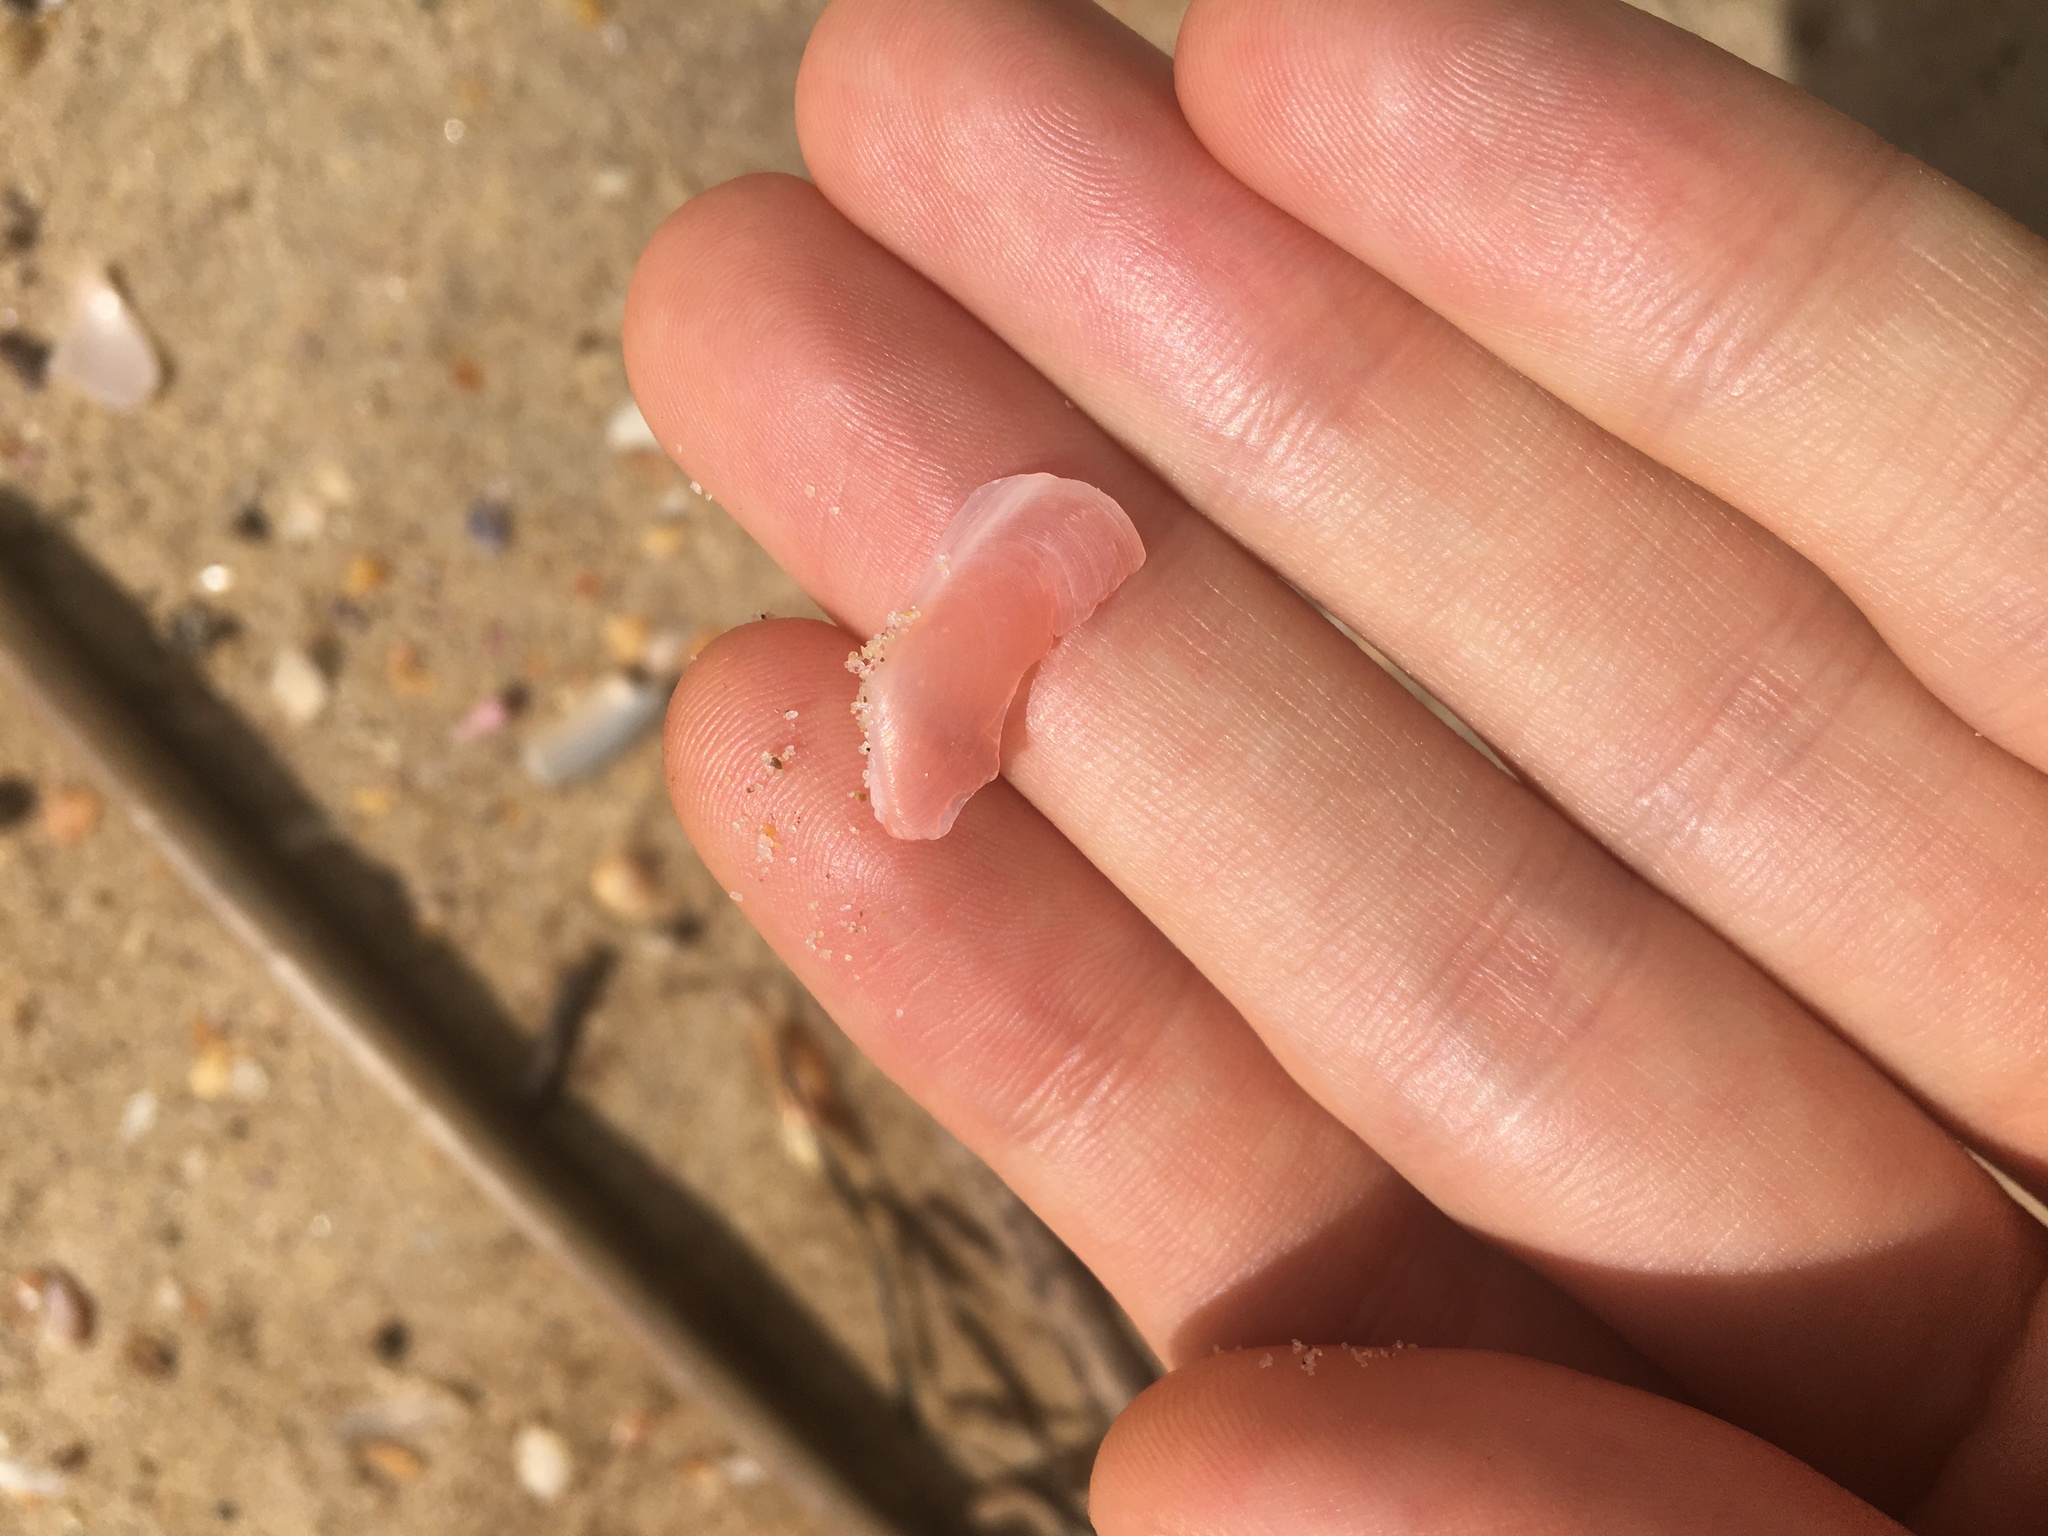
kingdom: Animalia
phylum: Mollusca
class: Bivalvia
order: Cardiida
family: Tellinidae
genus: Tellinota
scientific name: Tellinota albinella
